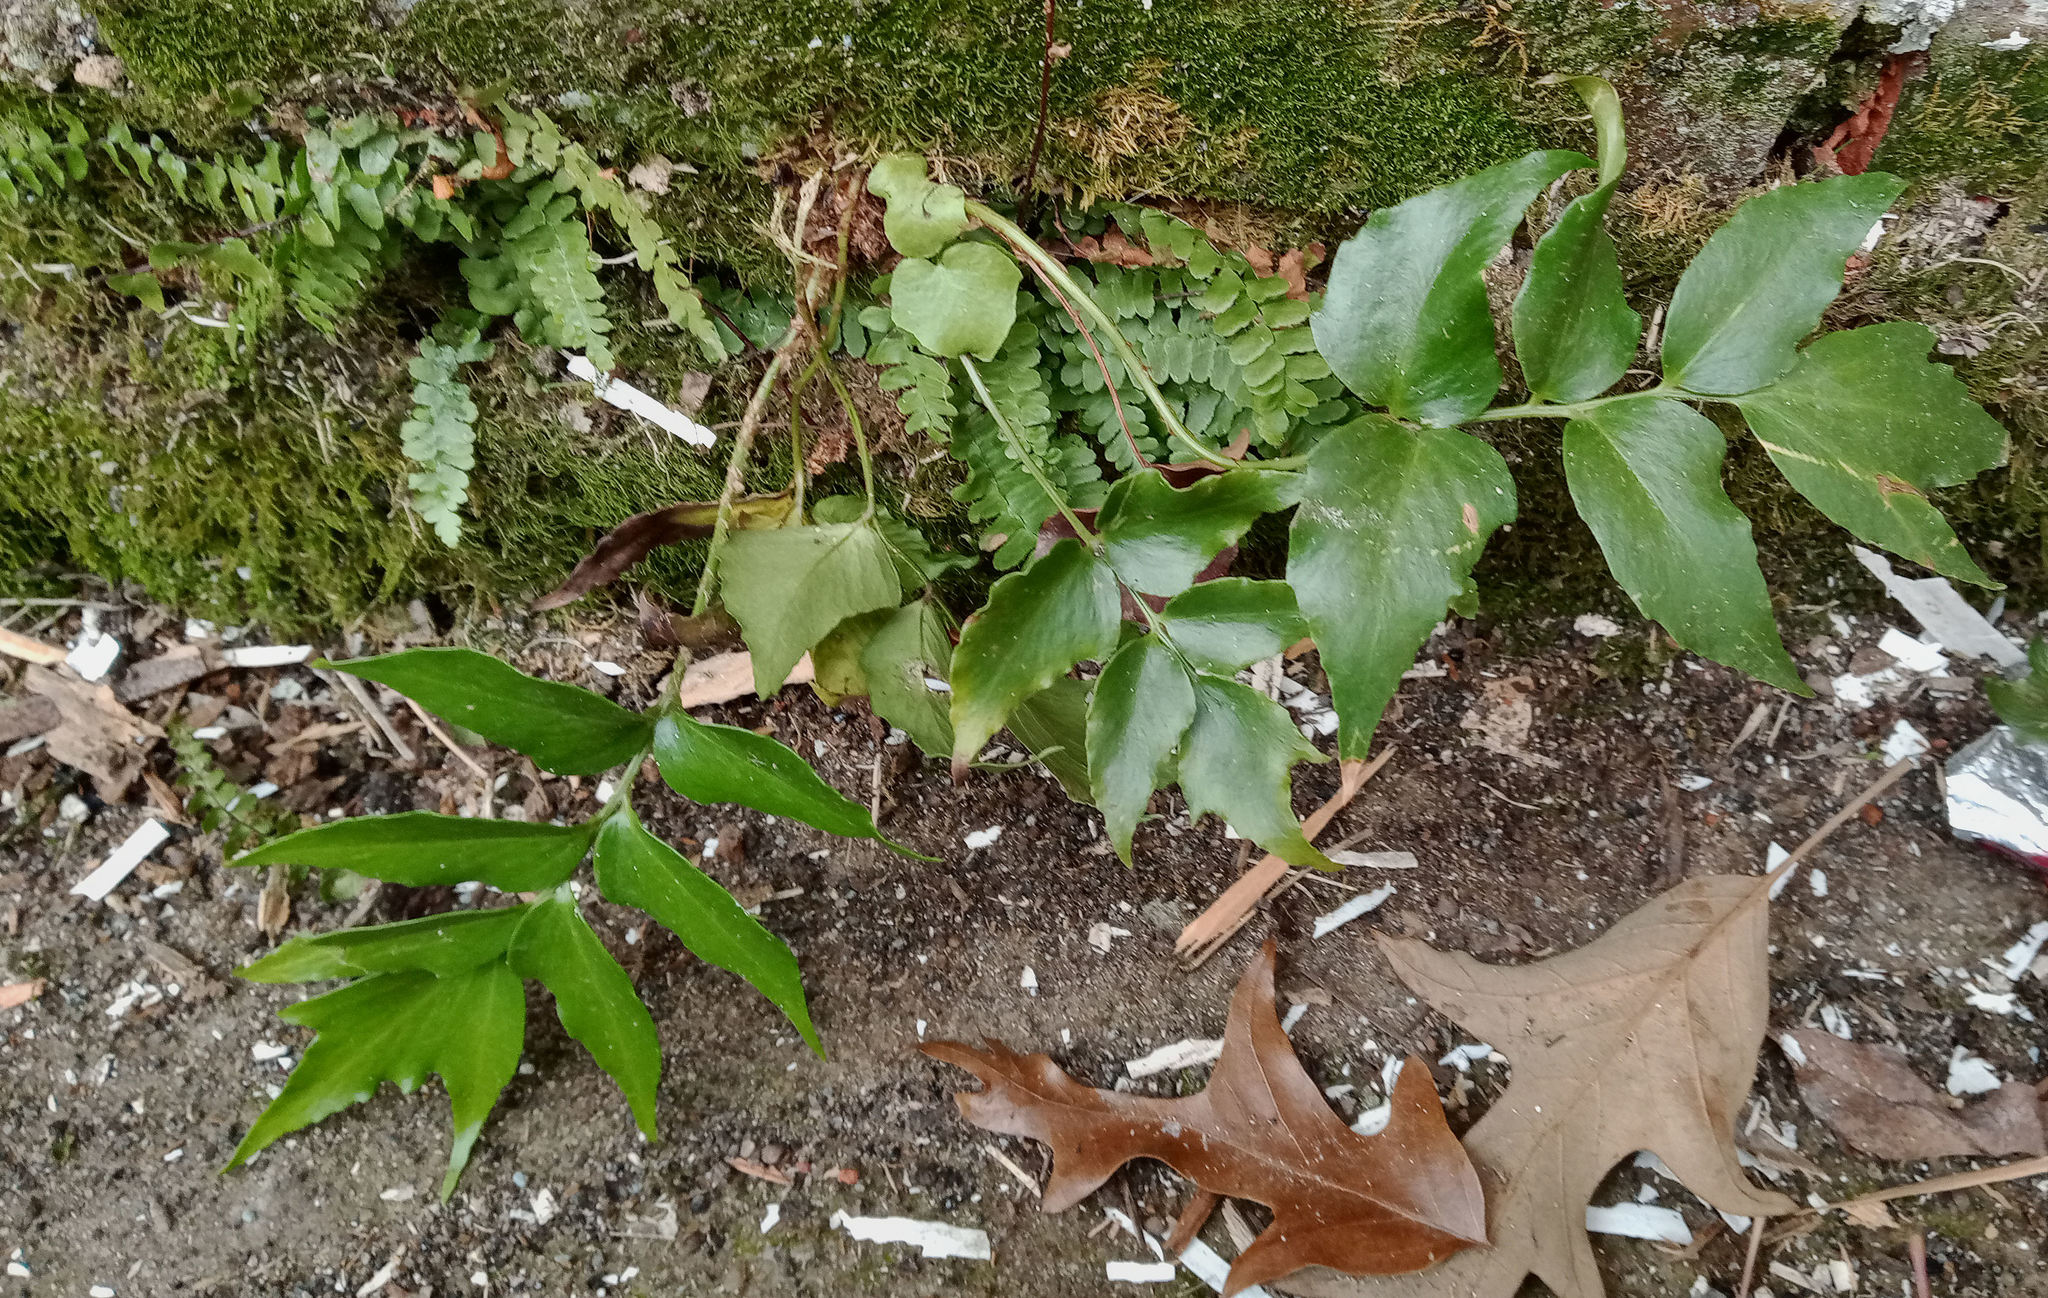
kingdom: Plantae
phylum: Tracheophyta
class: Polypodiopsida
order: Polypodiales
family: Dryopteridaceae
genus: Cyrtomium
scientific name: Cyrtomium falcatum
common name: House holly-fern
